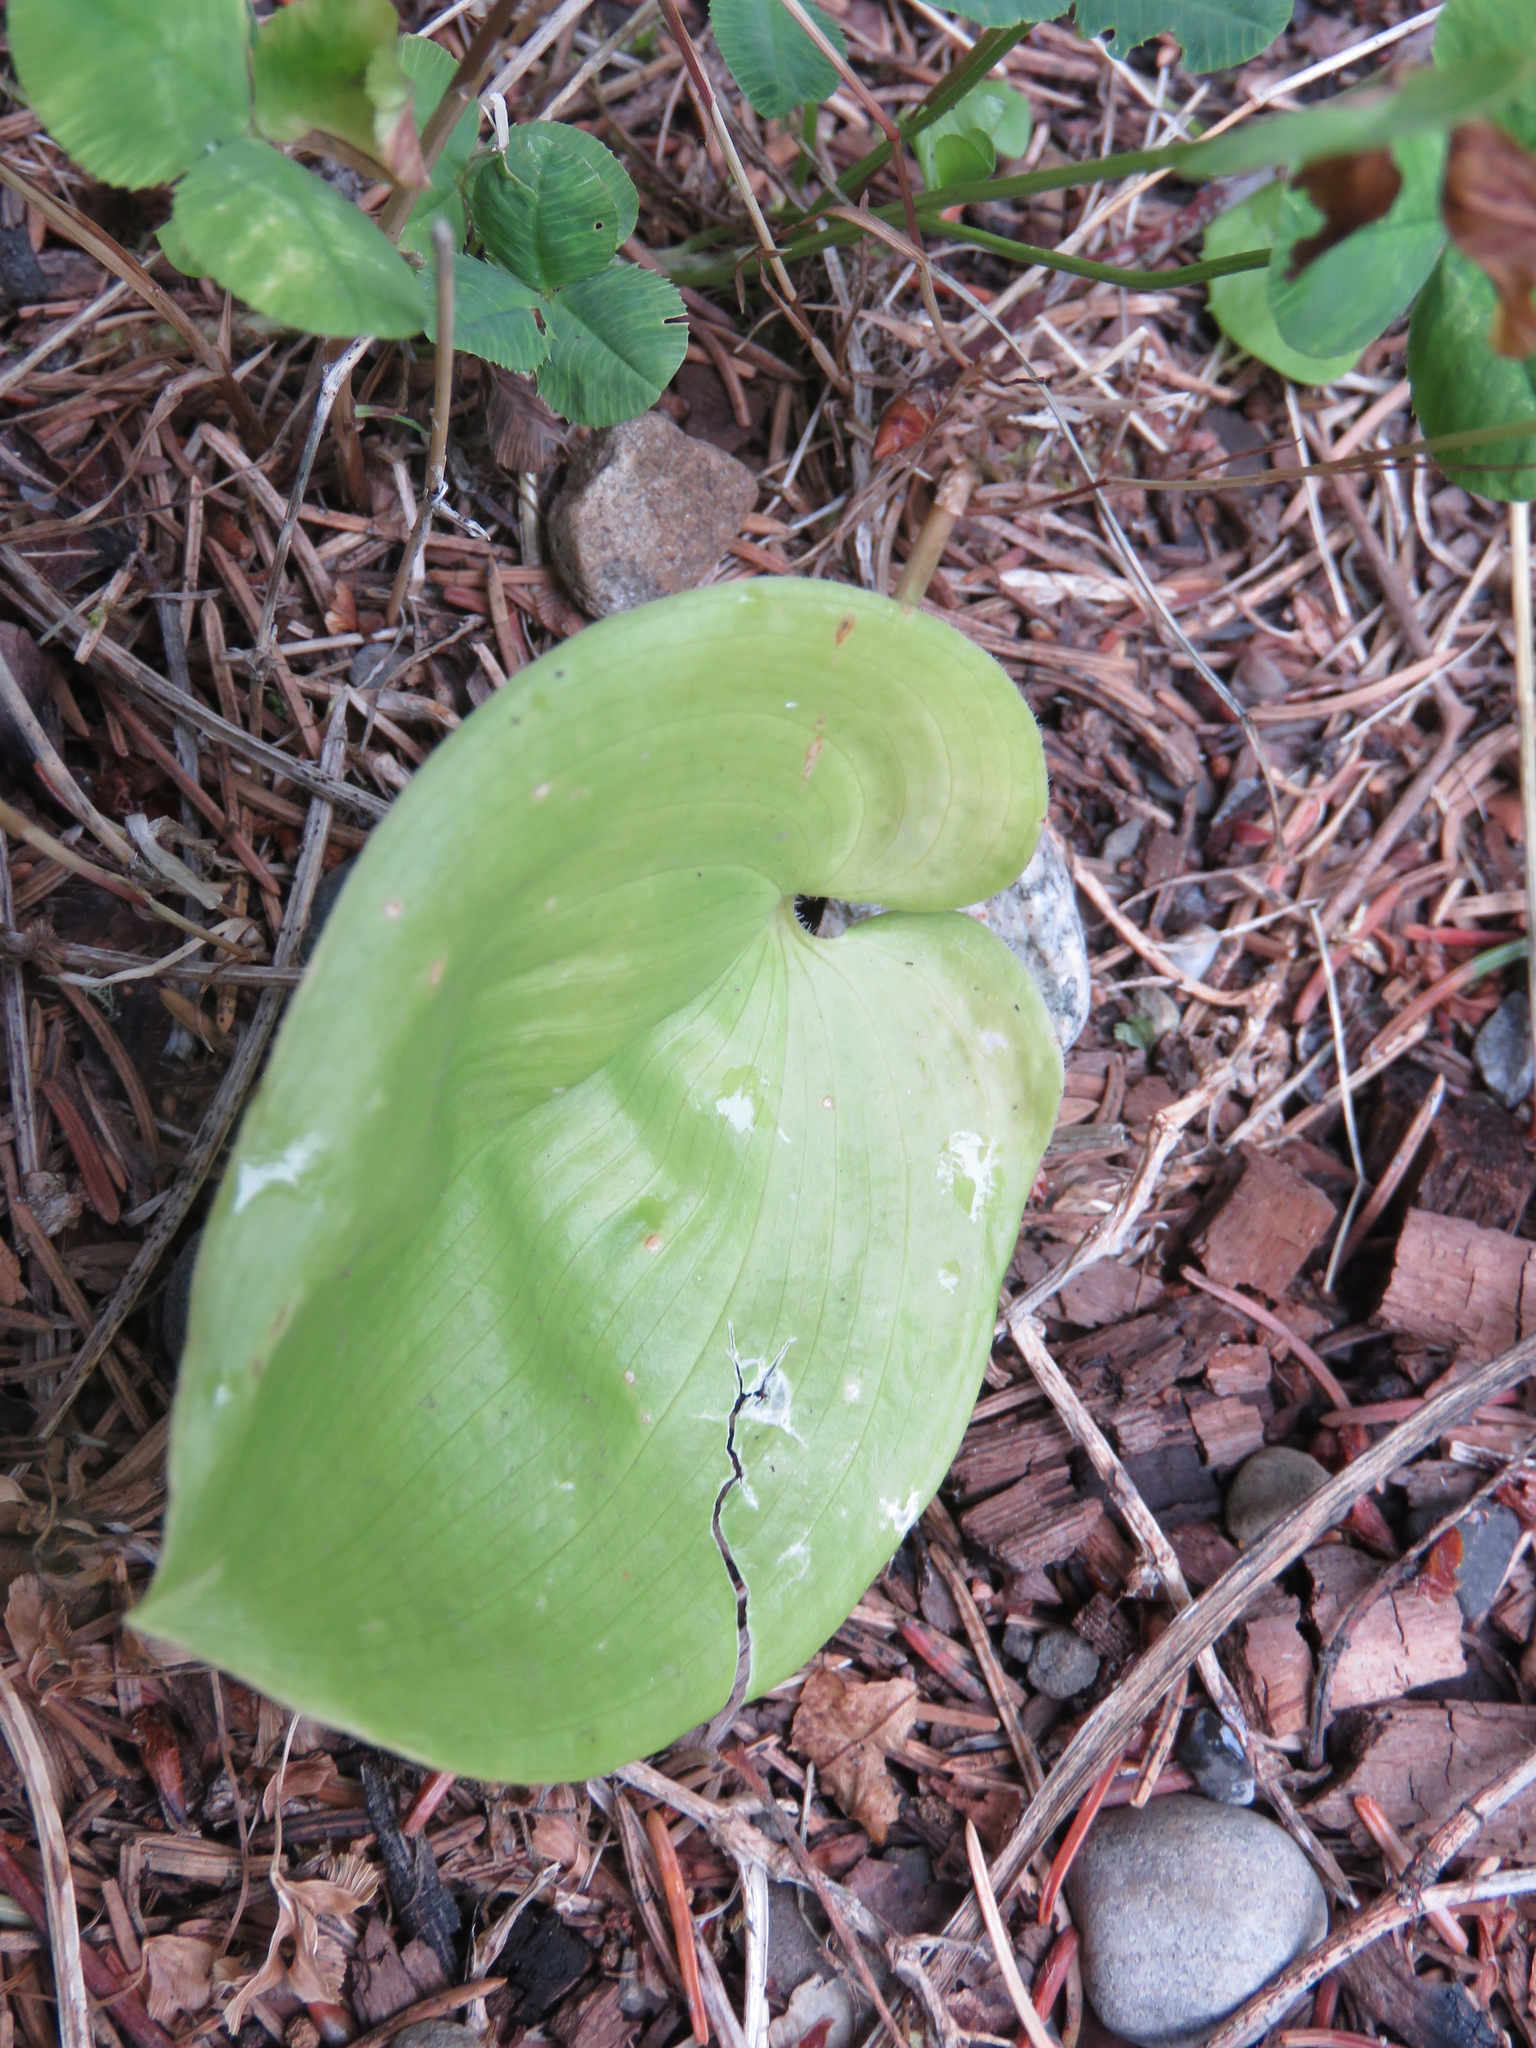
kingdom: Plantae
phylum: Tracheophyta
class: Liliopsida
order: Asparagales
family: Asparagaceae
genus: Maianthemum
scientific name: Maianthemum canadense
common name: False lily-of-the-valley
